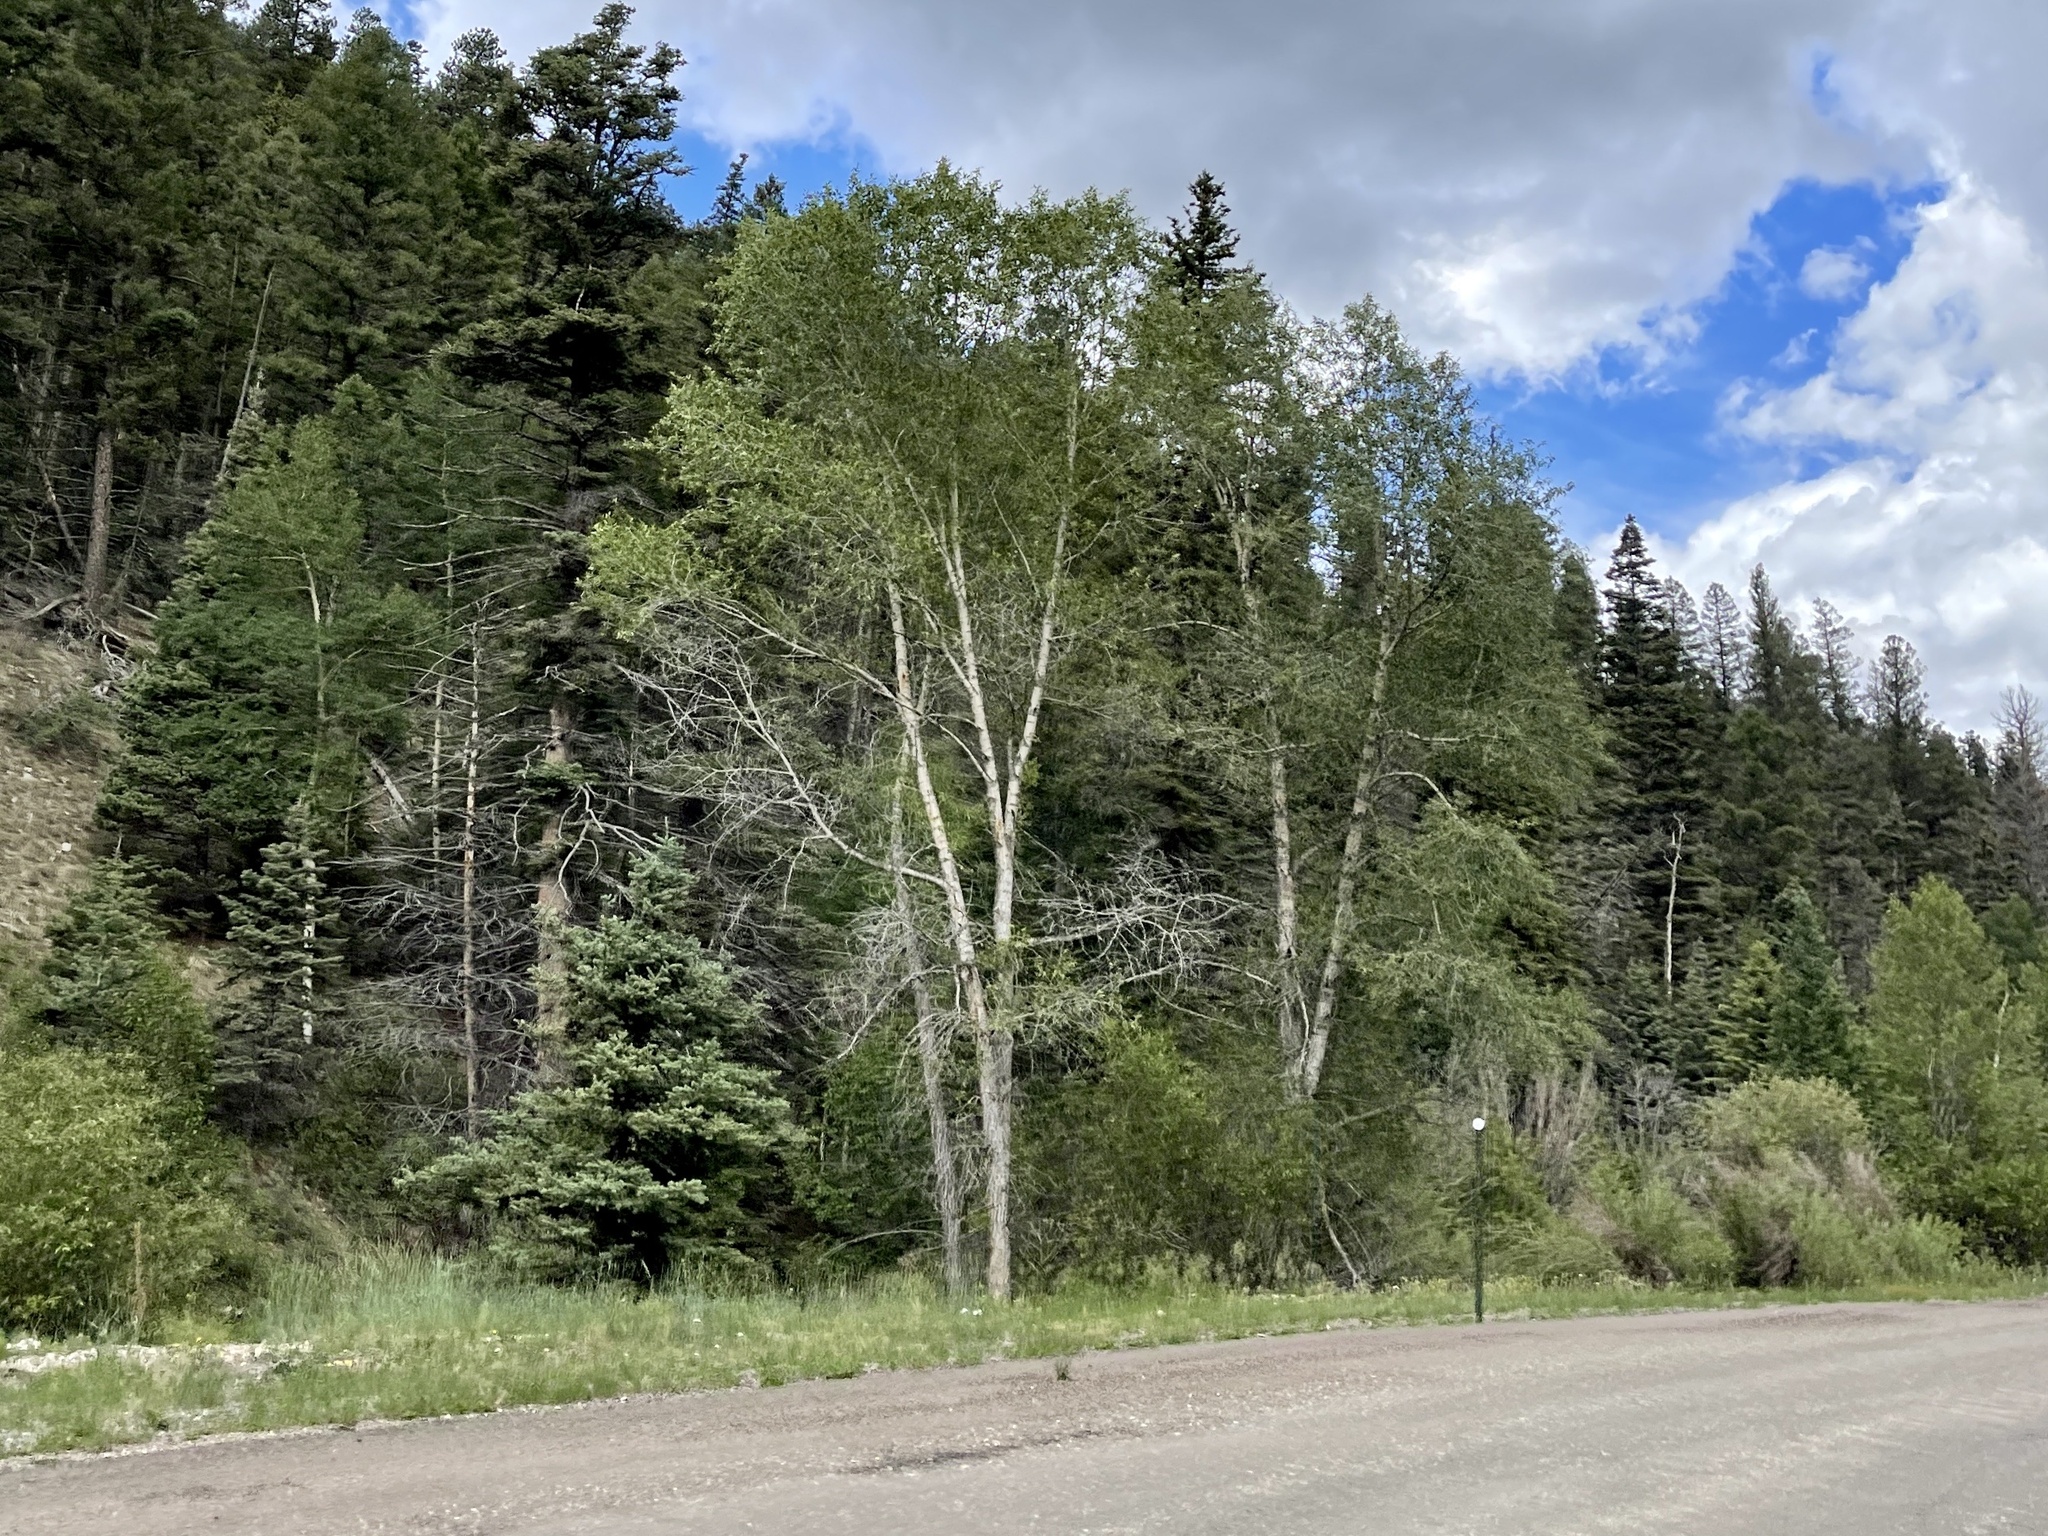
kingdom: Plantae
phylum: Tracheophyta
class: Magnoliopsida
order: Malpighiales
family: Salicaceae
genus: Populus
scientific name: Populus tremuloides
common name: Quaking aspen
